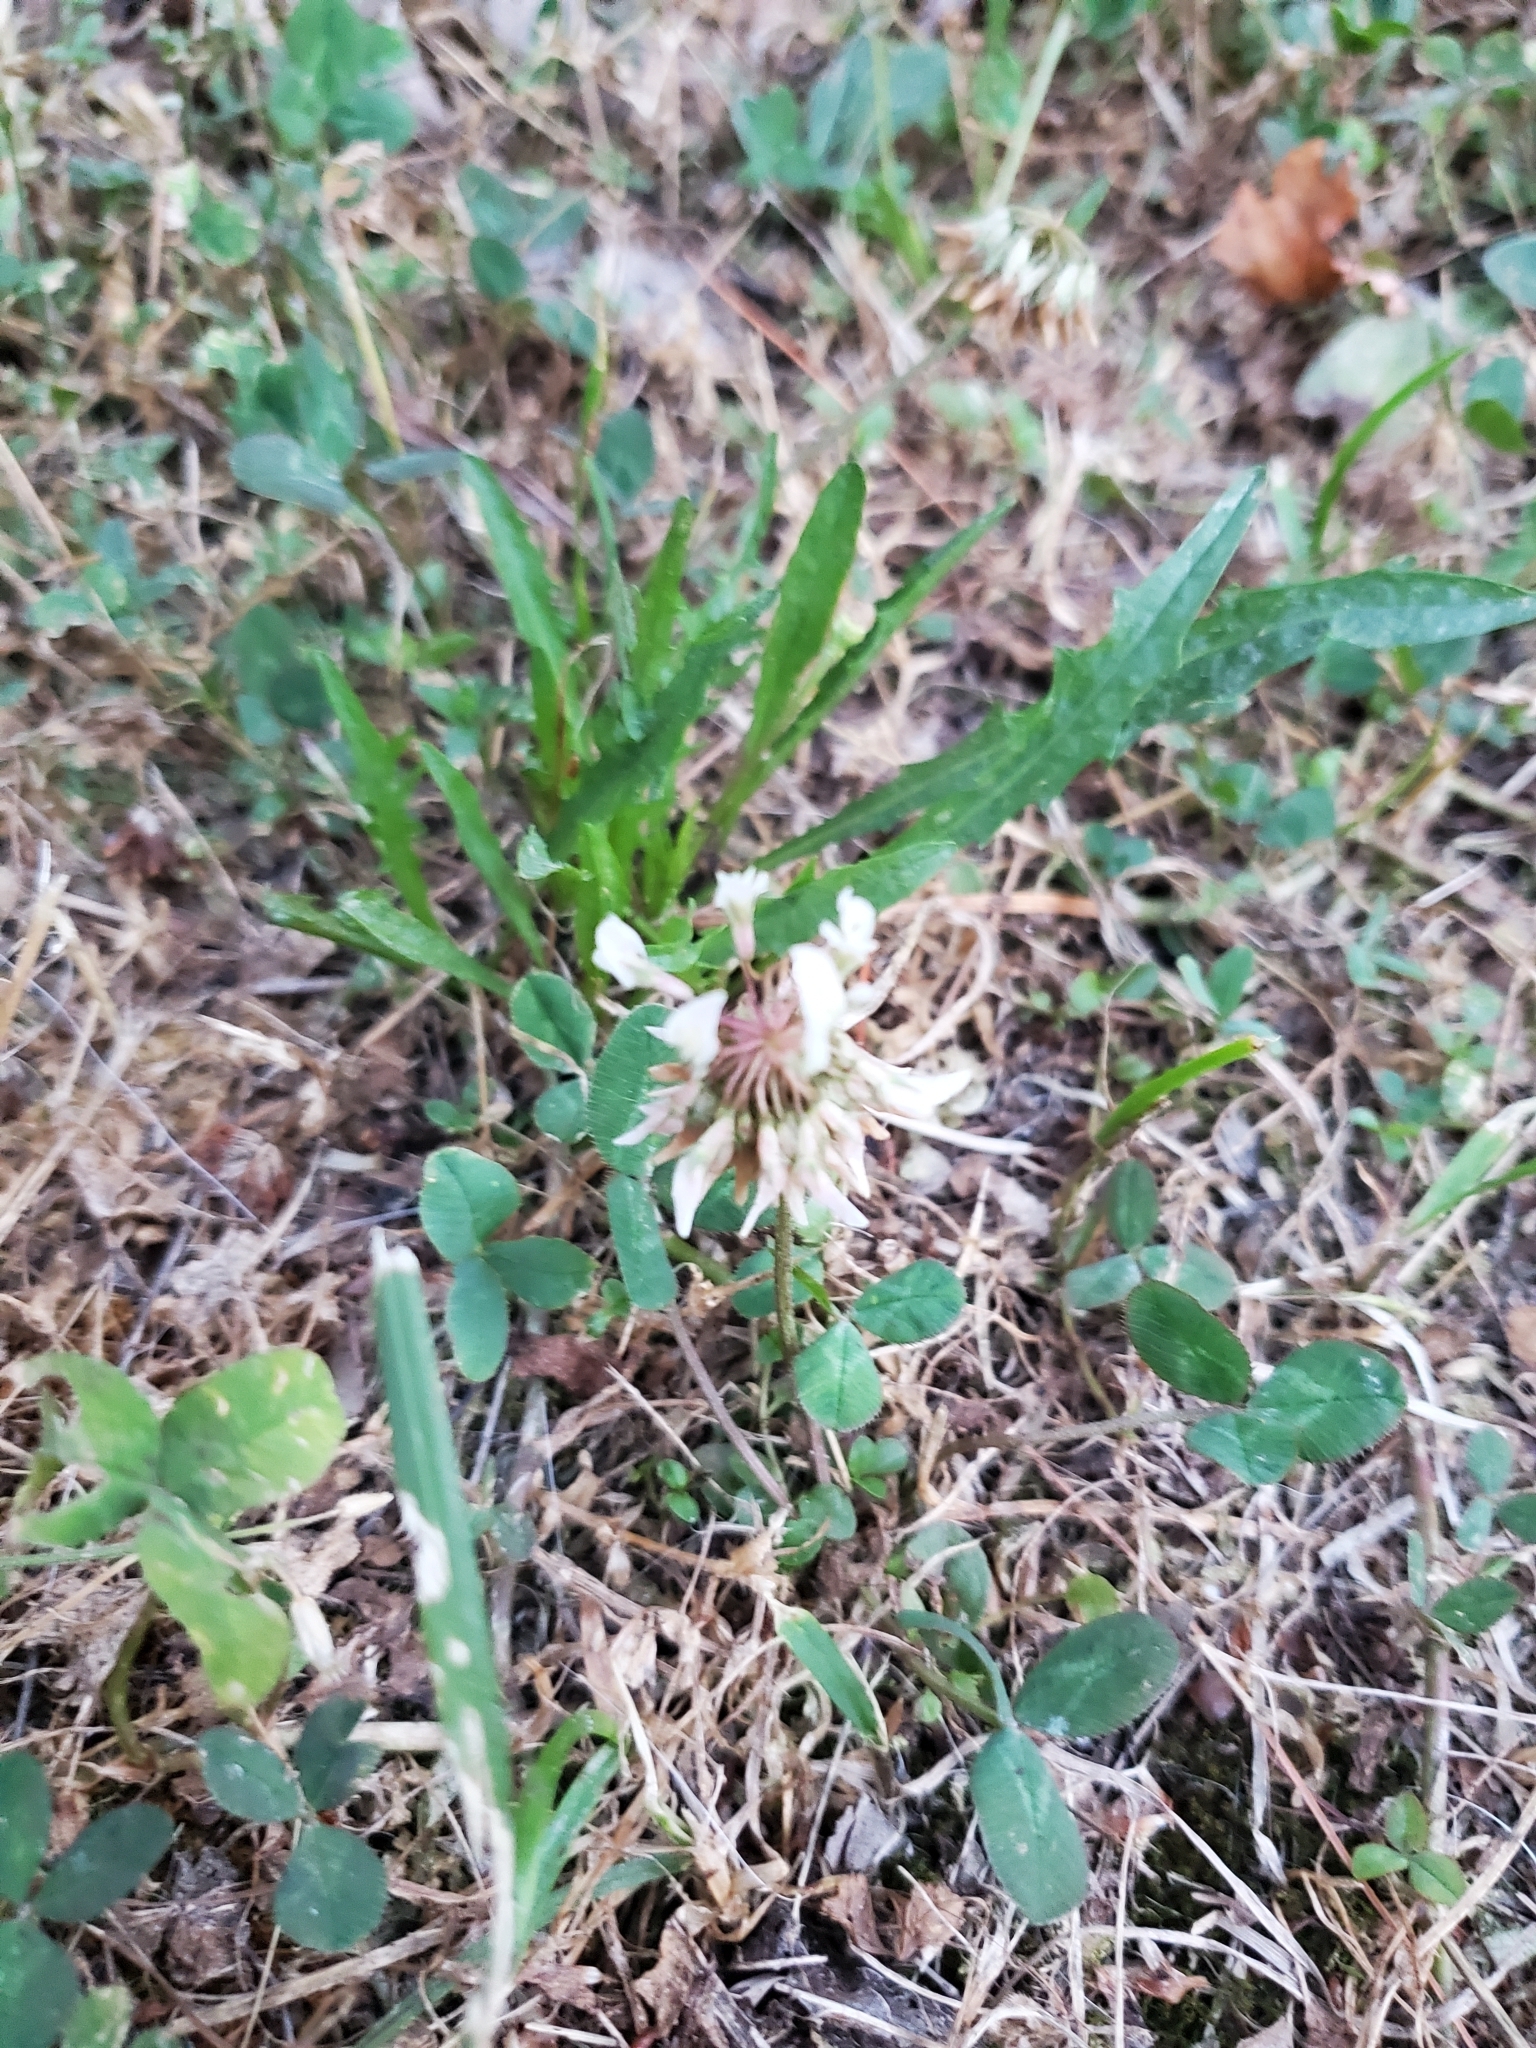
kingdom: Plantae
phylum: Tracheophyta
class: Magnoliopsida
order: Fabales
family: Fabaceae
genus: Trifolium
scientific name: Trifolium repens
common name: White clover
